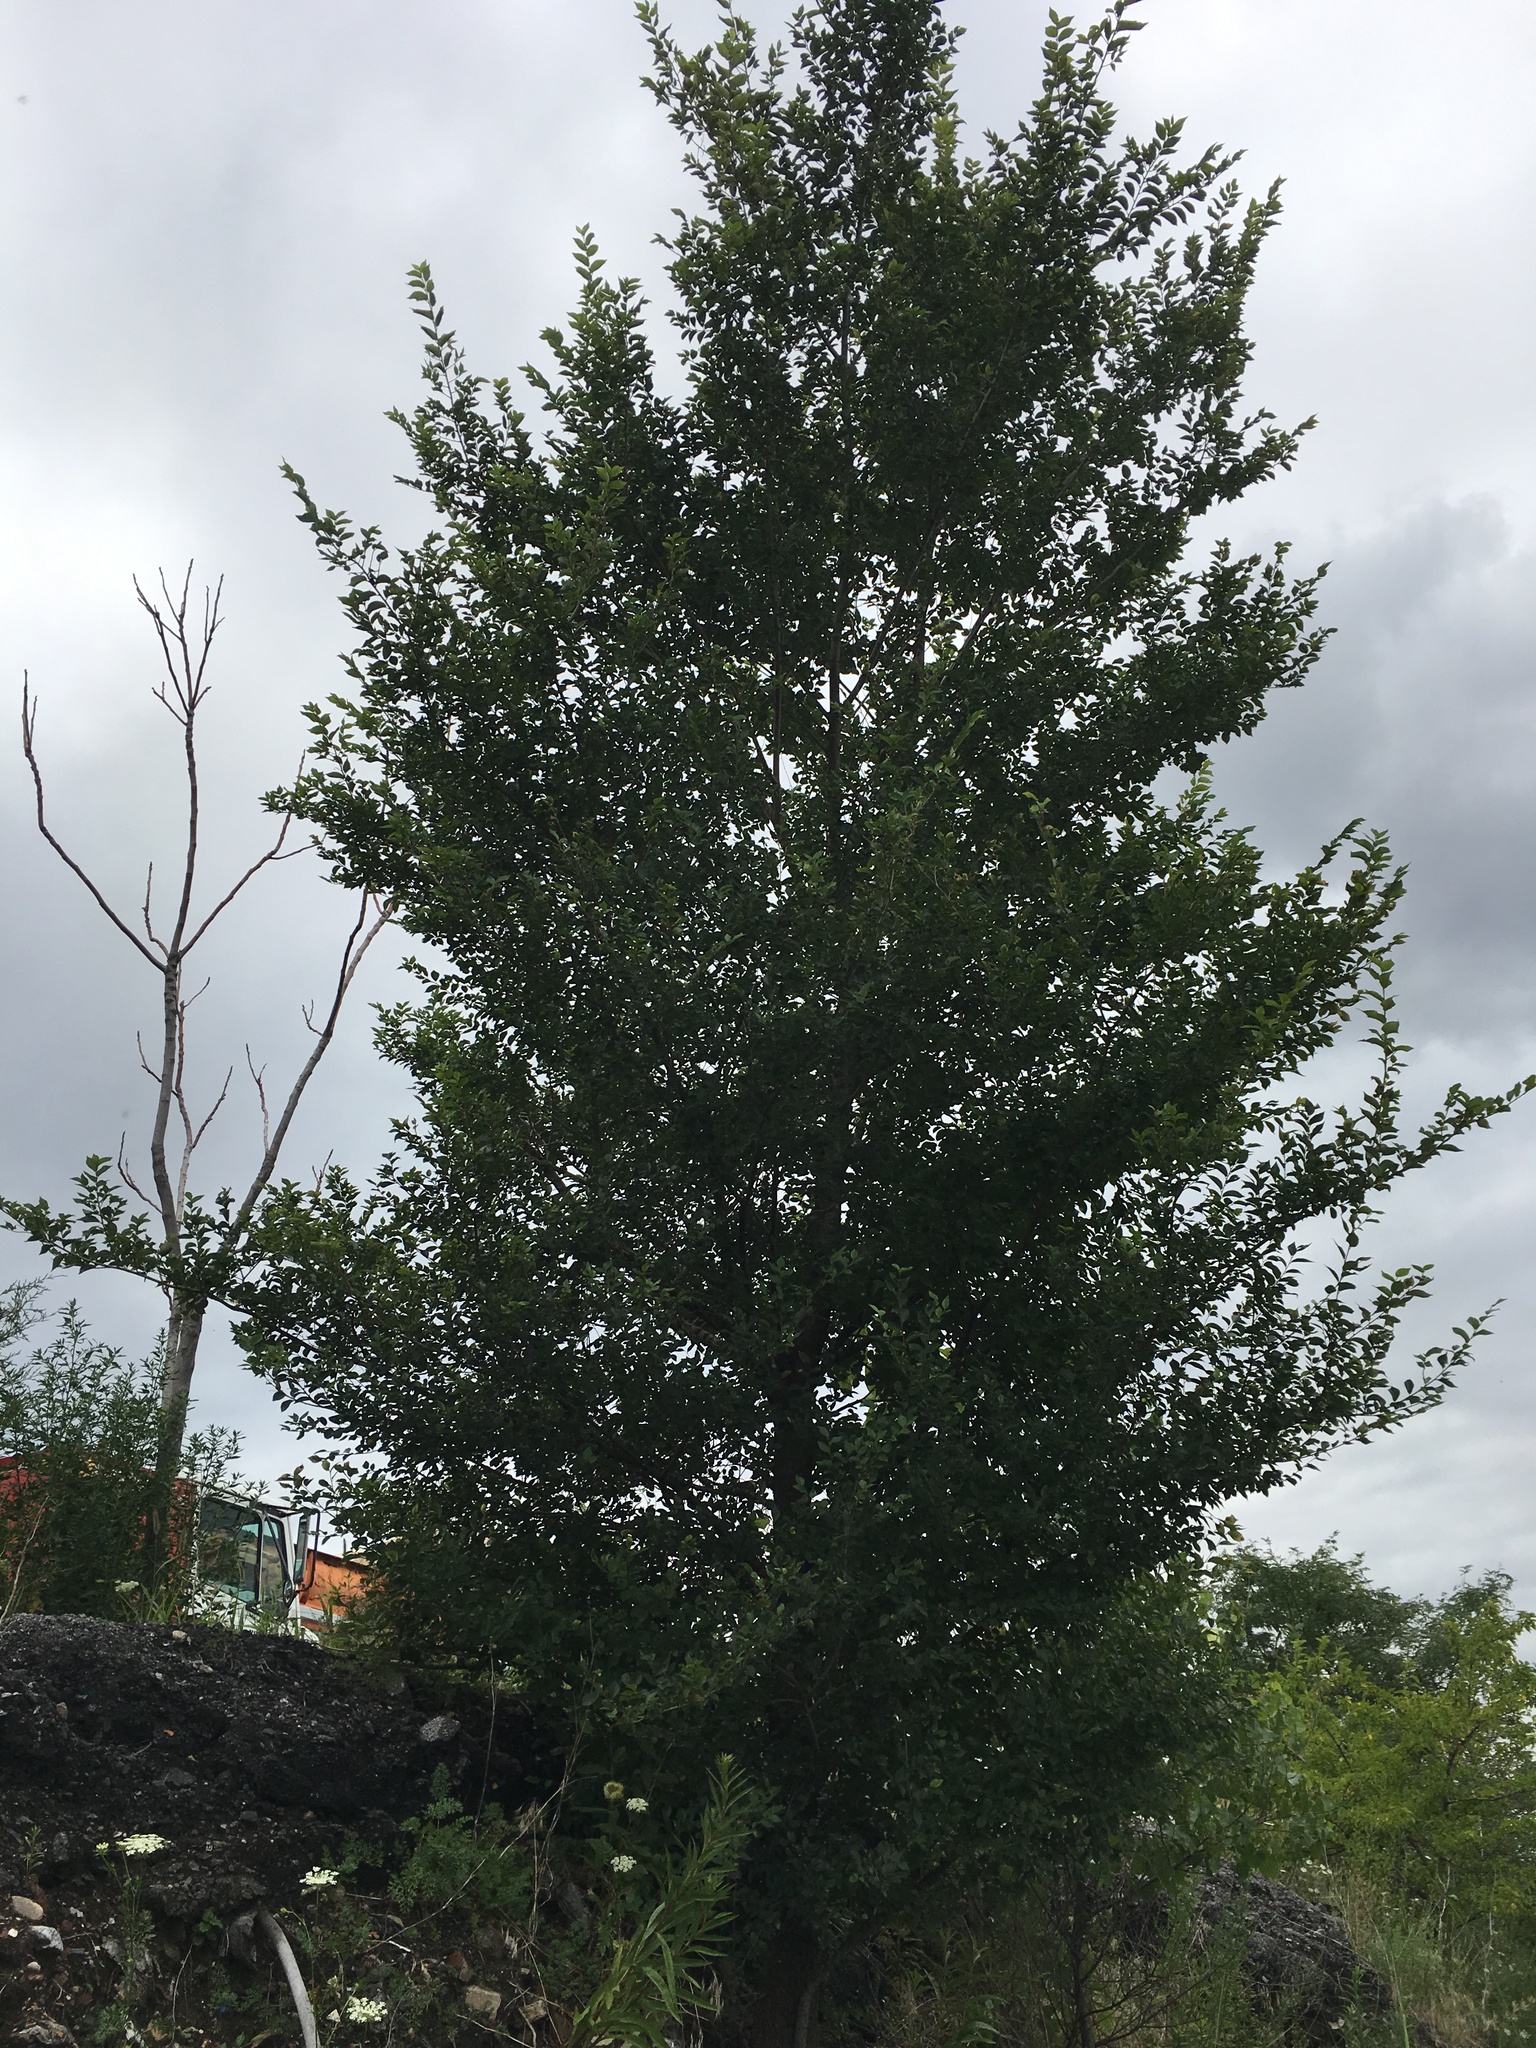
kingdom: Plantae
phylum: Tracheophyta
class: Magnoliopsida
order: Rosales
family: Ulmaceae
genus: Ulmus
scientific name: Ulmus pumila
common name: Siberian elm
